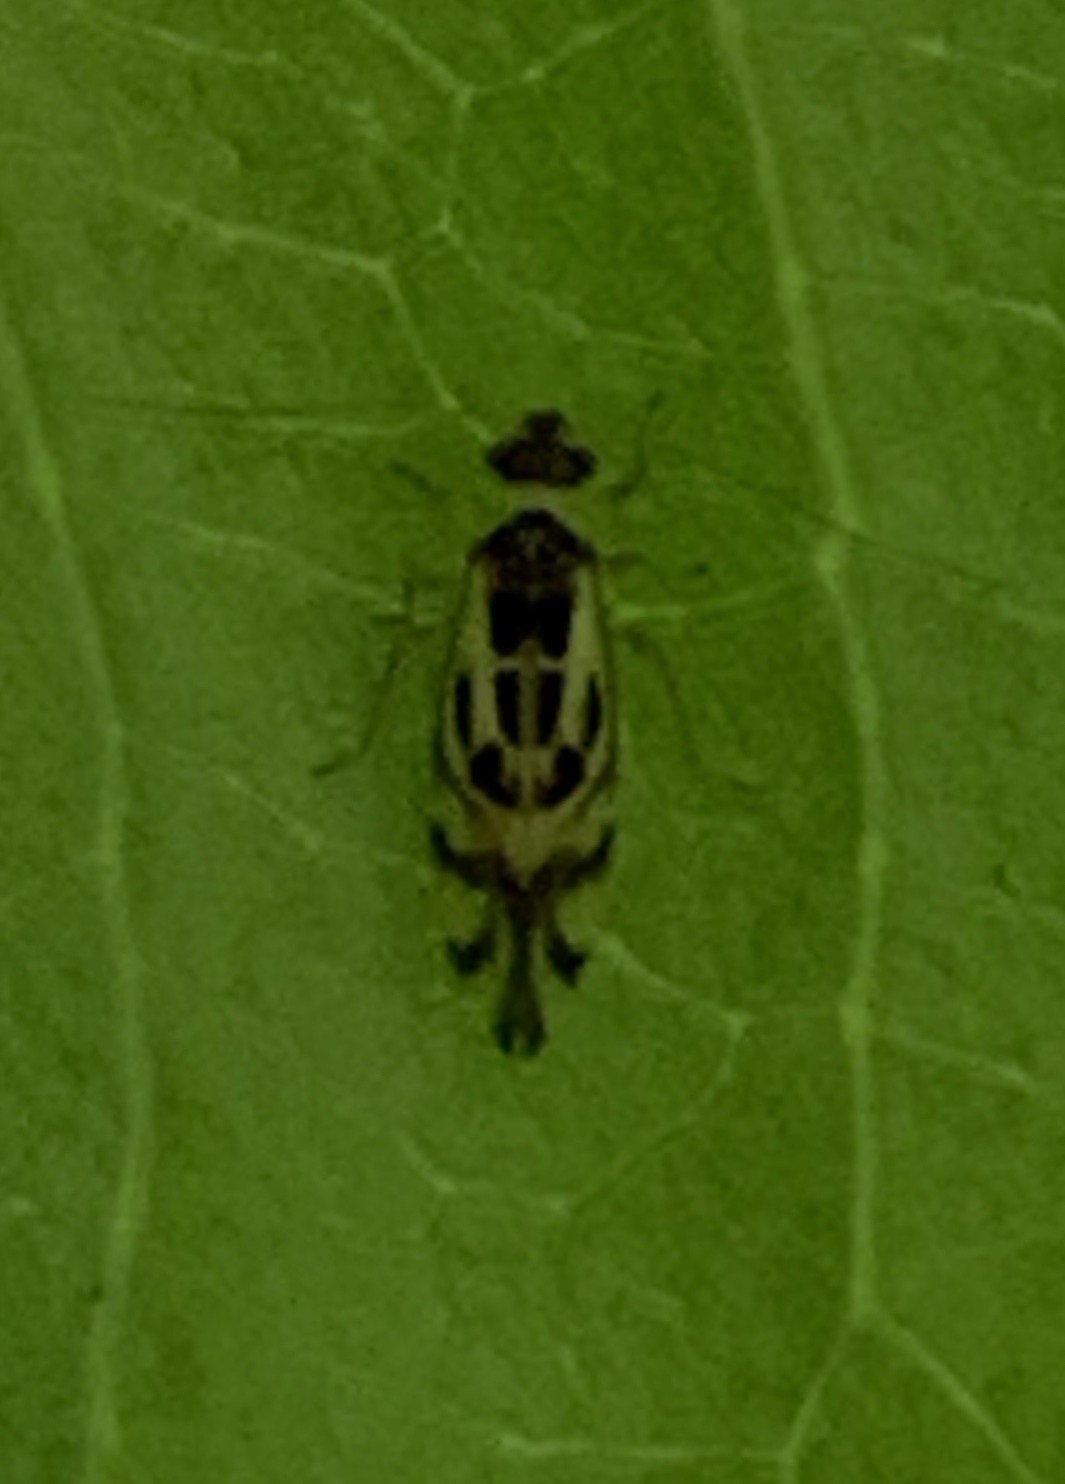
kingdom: Animalia
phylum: Arthropoda
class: Insecta
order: Psocodea
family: Stenopsocidae
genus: Graphopsocus
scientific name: Graphopsocus cruciatus
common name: Lizard bark louse
